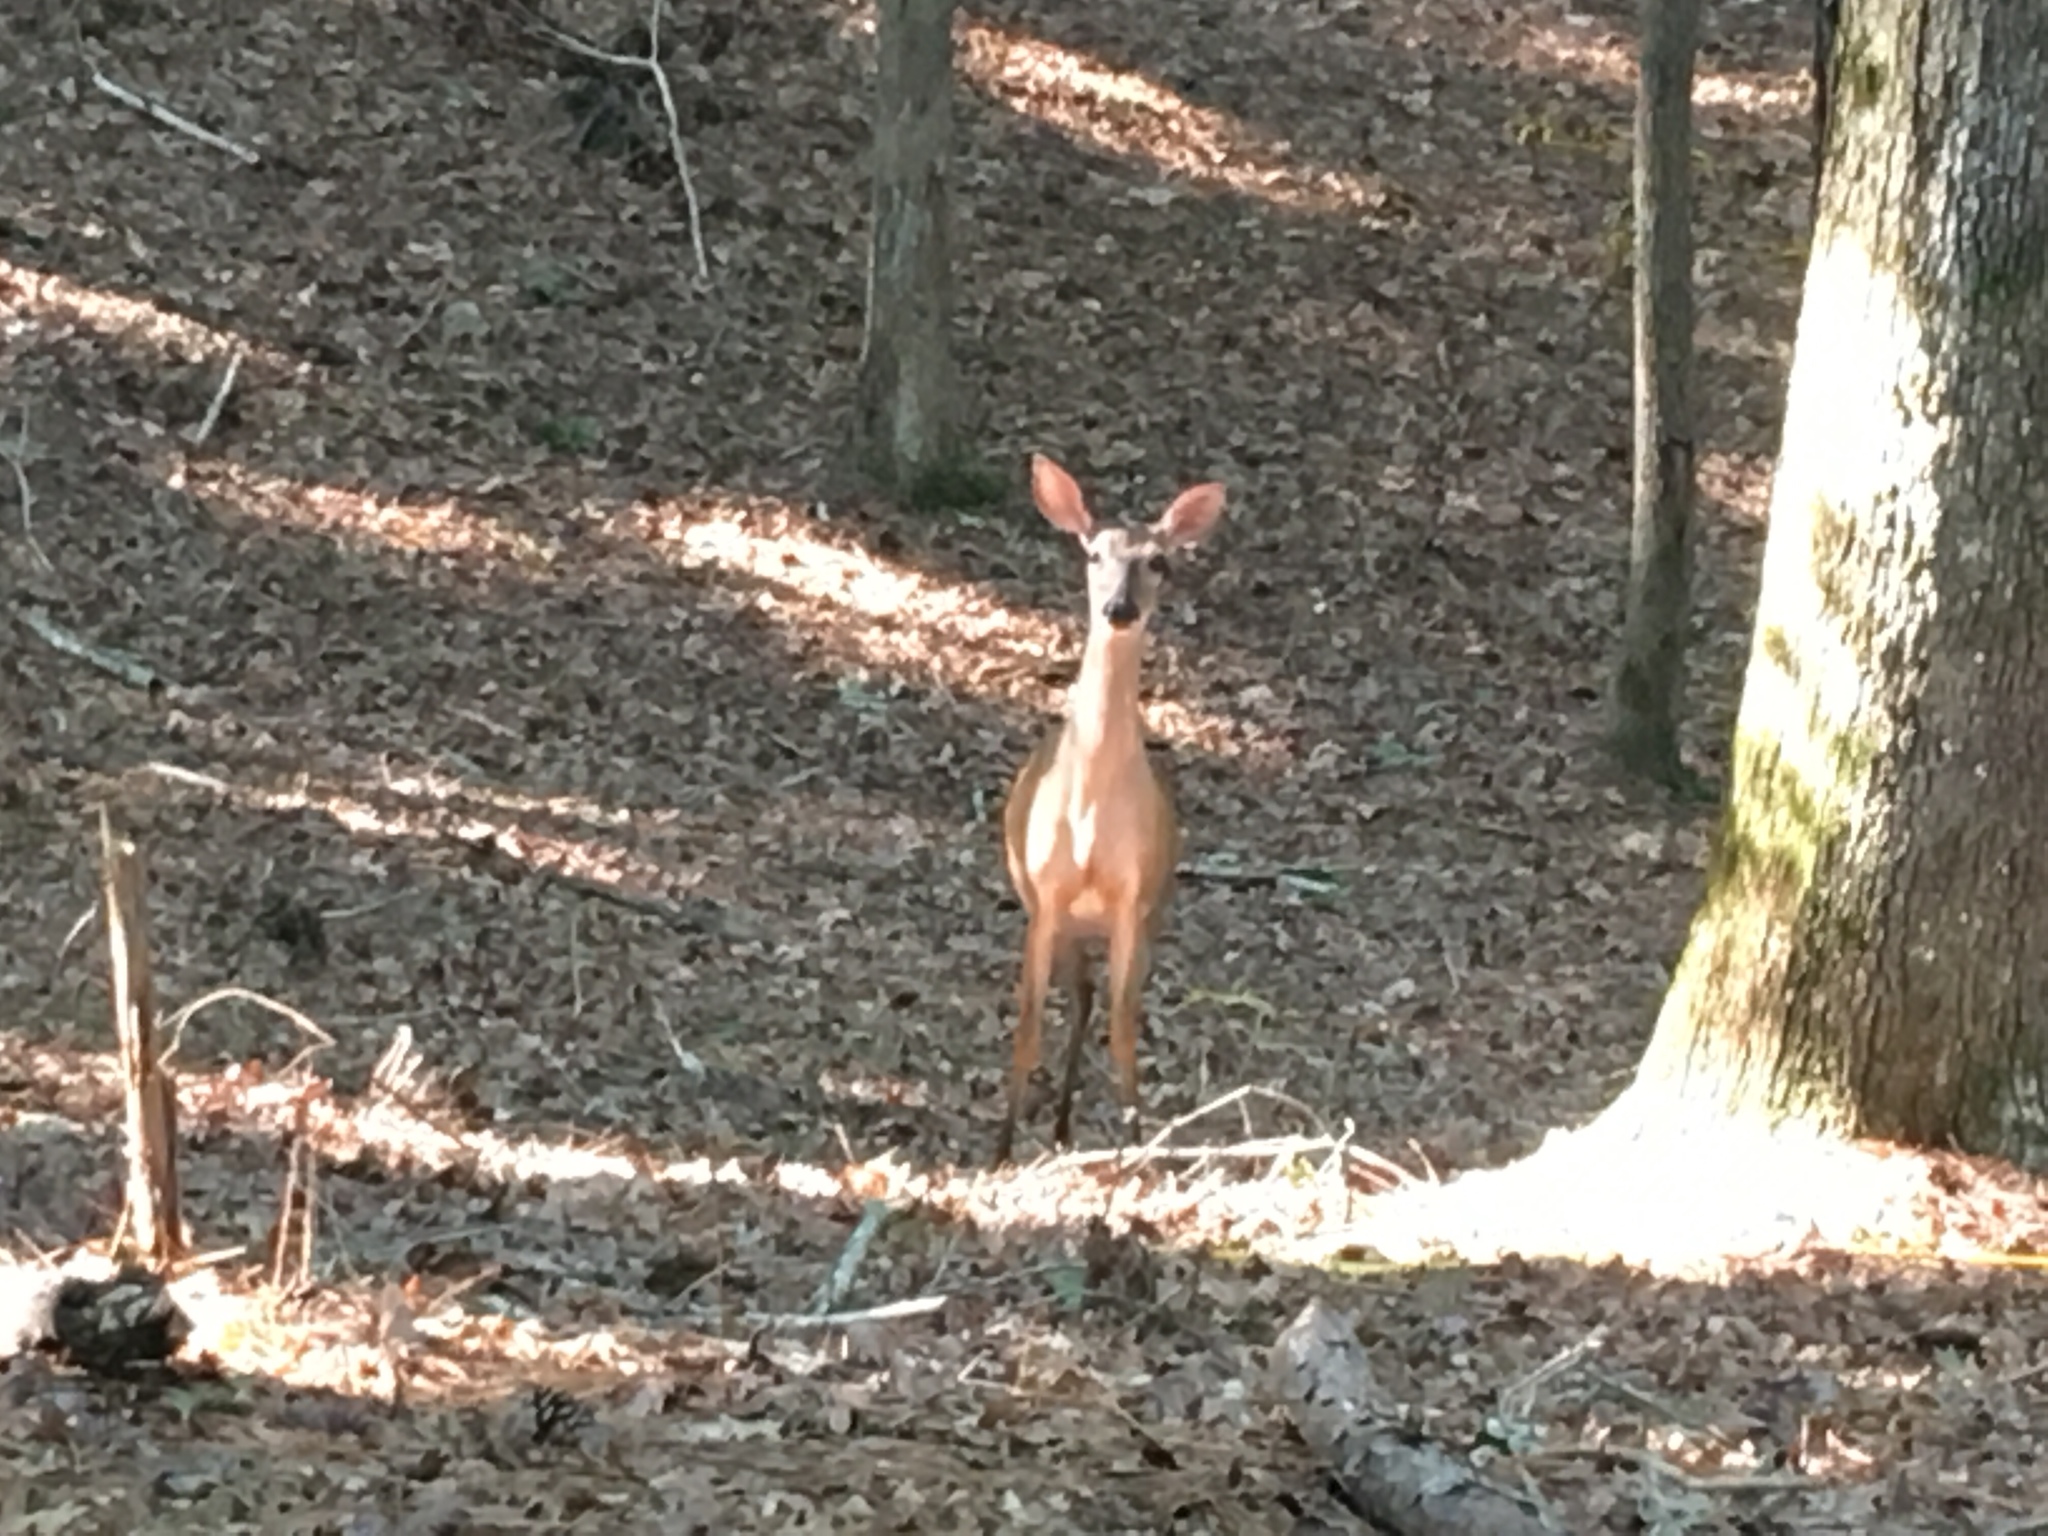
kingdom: Animalia
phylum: Chordata
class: Mammalia
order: Artiodactyla
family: Cervidae
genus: Odocoileus
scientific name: Odocoileus virginianus
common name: White-tailed deer
